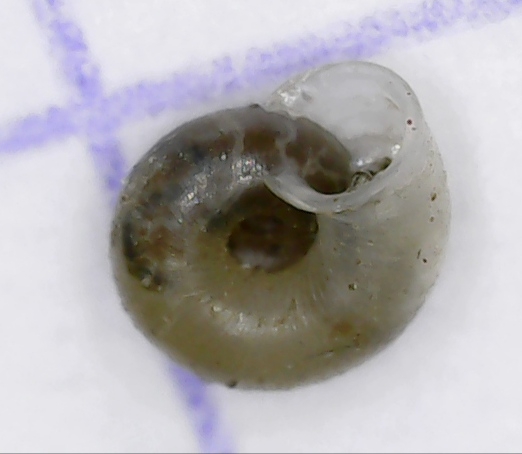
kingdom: Animalia
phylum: Mollusca
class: Gastropoda
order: Stylommatophora
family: Valloniidae
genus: Vallonia
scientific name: Vallonia pulchella
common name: Smooth grass snail
